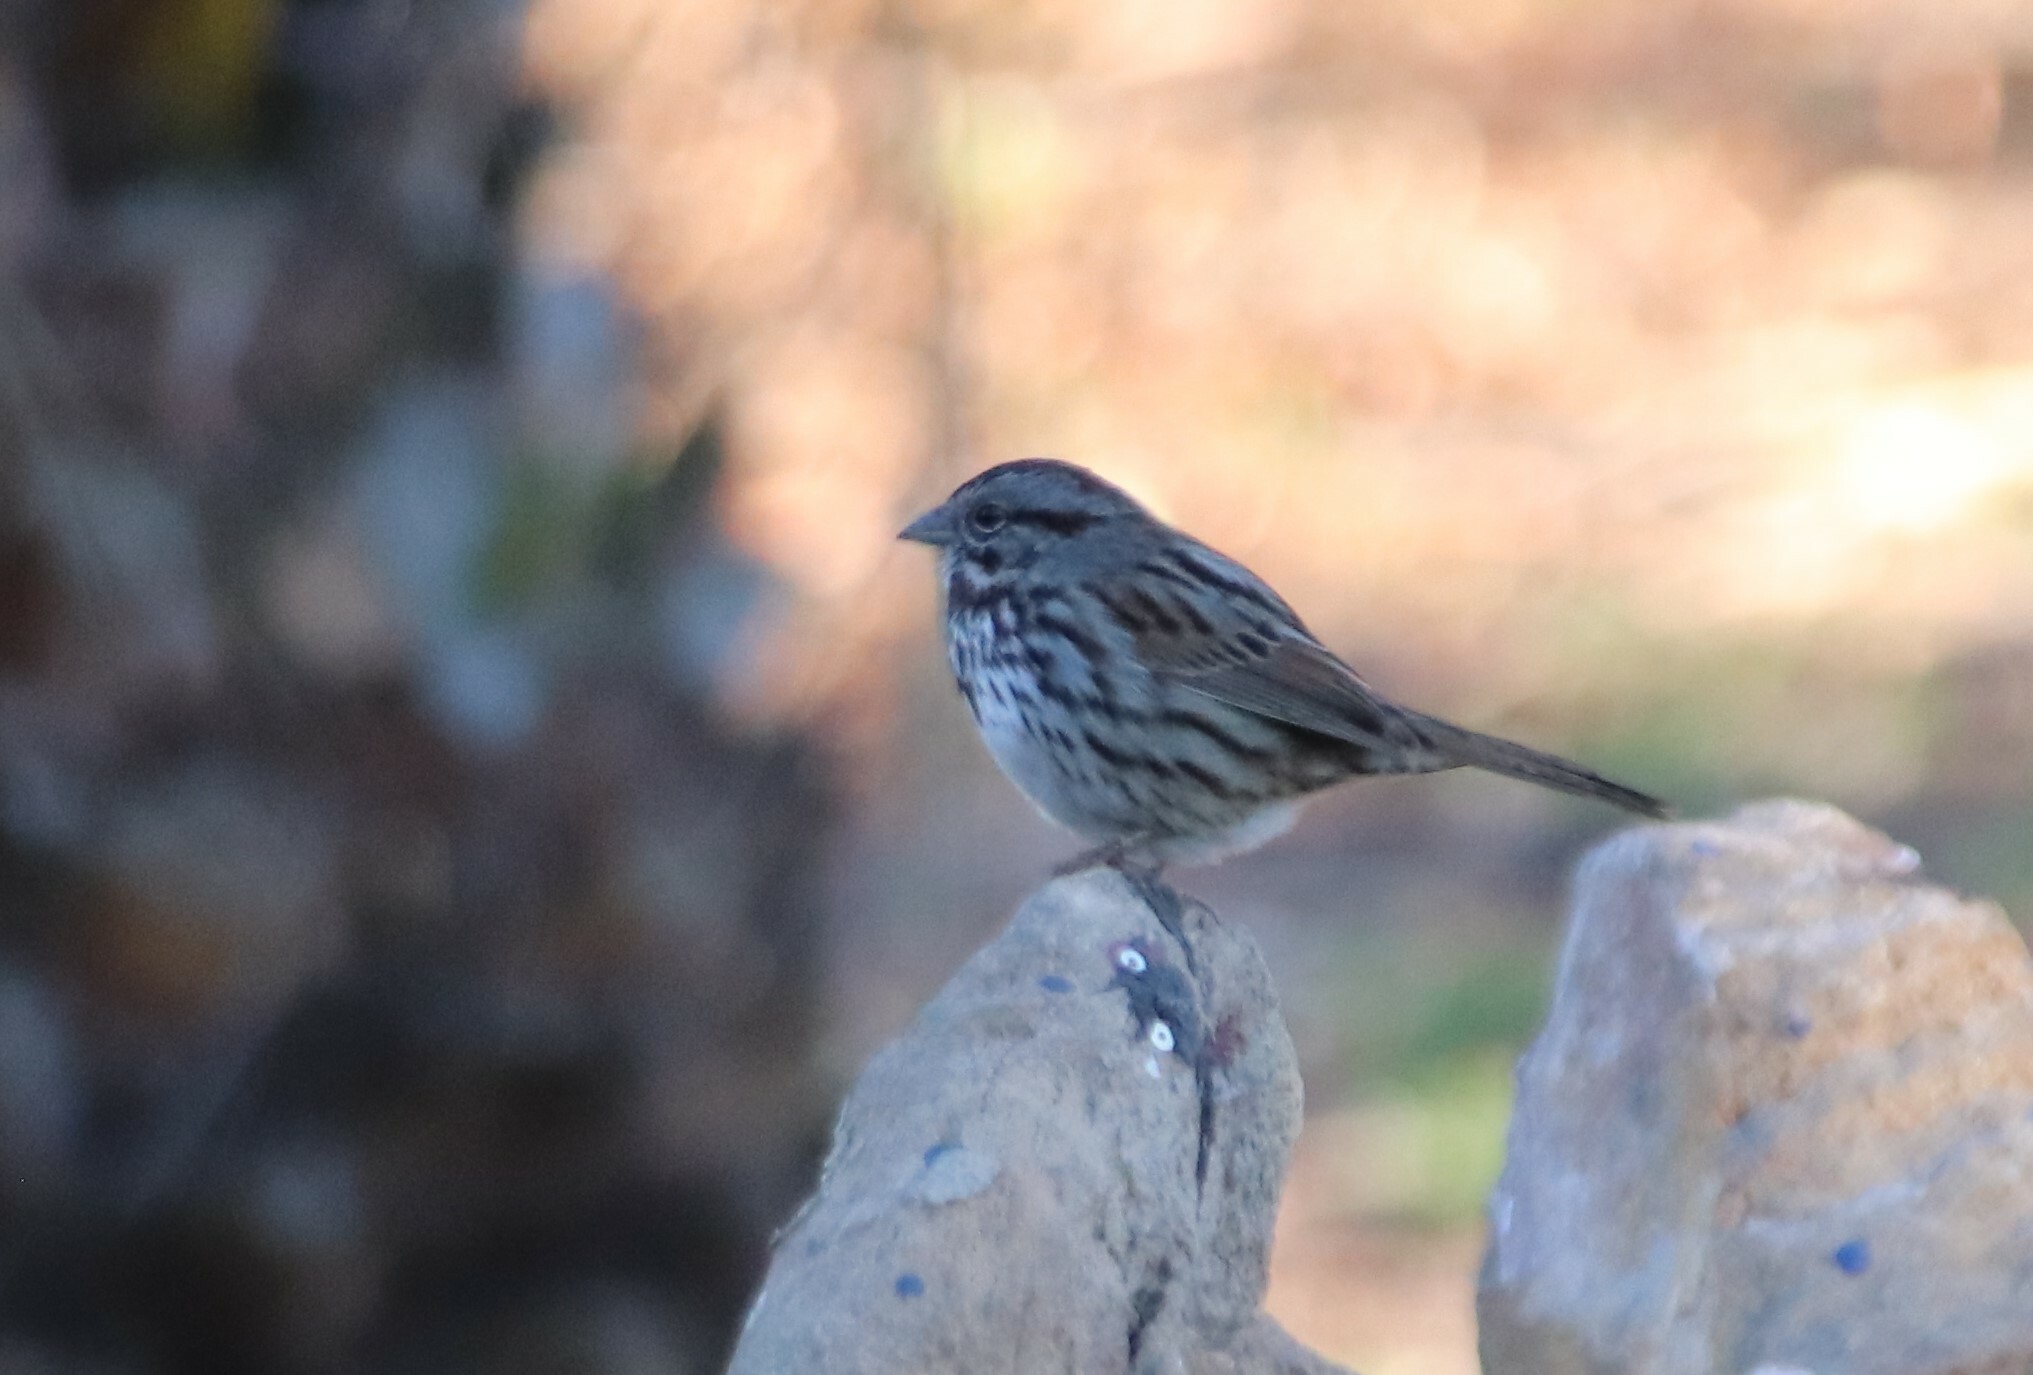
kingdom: Animalia
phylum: Chordata
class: Aves
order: Passeriformes
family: Passerellidae
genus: Melospiza
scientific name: Melospiza melodia
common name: Song sparrow
